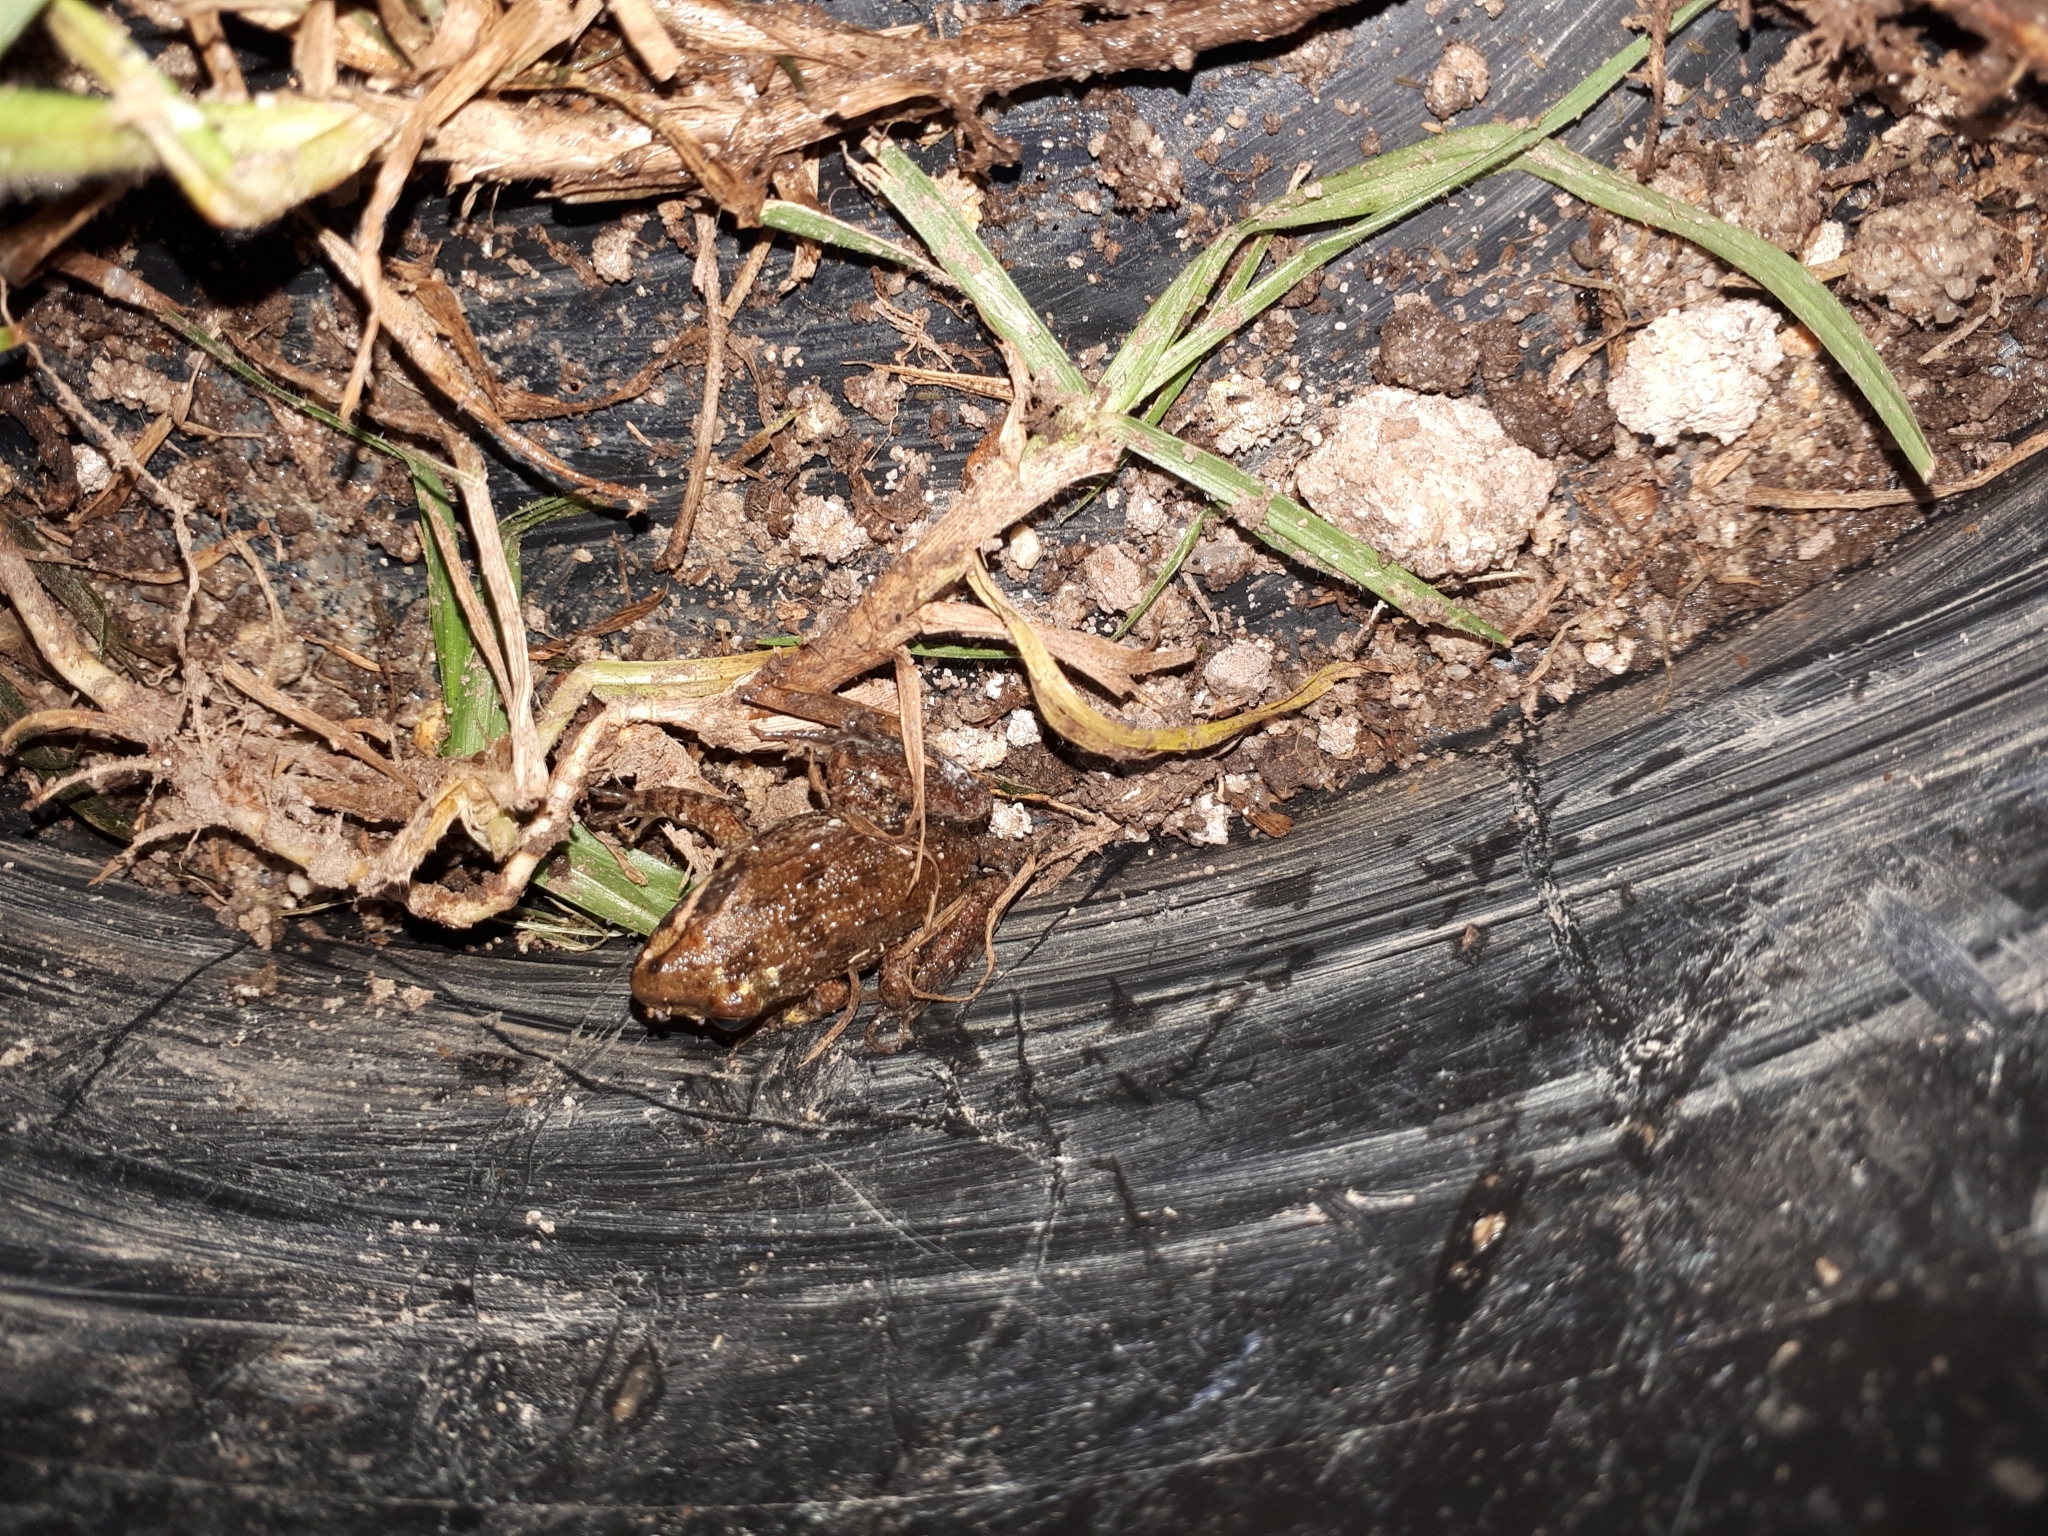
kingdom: Animalia
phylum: Chordata
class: Amphibia
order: Anura
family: Pyxicephalidae
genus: Strongylopus
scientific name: Strongylopus grayii
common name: Gray's stream frog
